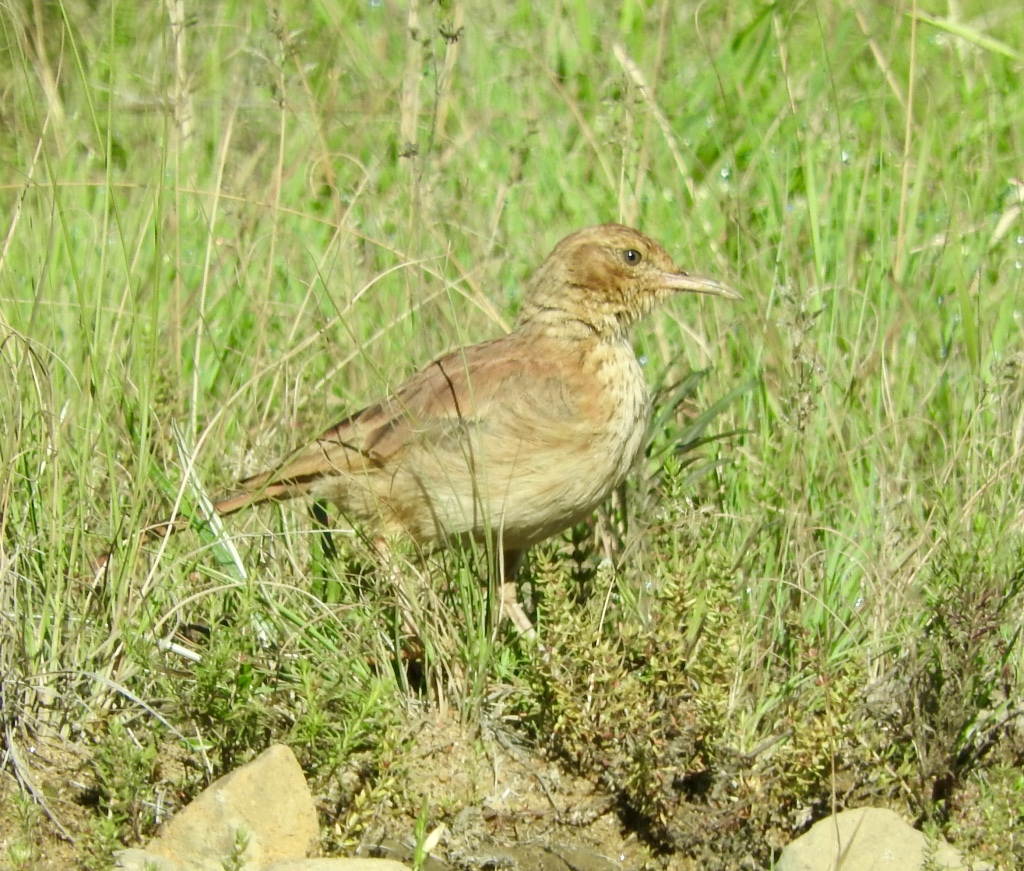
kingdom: Animalia
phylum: Chordata
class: Aves
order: Passeriformes
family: Alaudidae
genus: Certhilauda
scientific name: Certhilauda semitorquata
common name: Eastern long-billed lark
